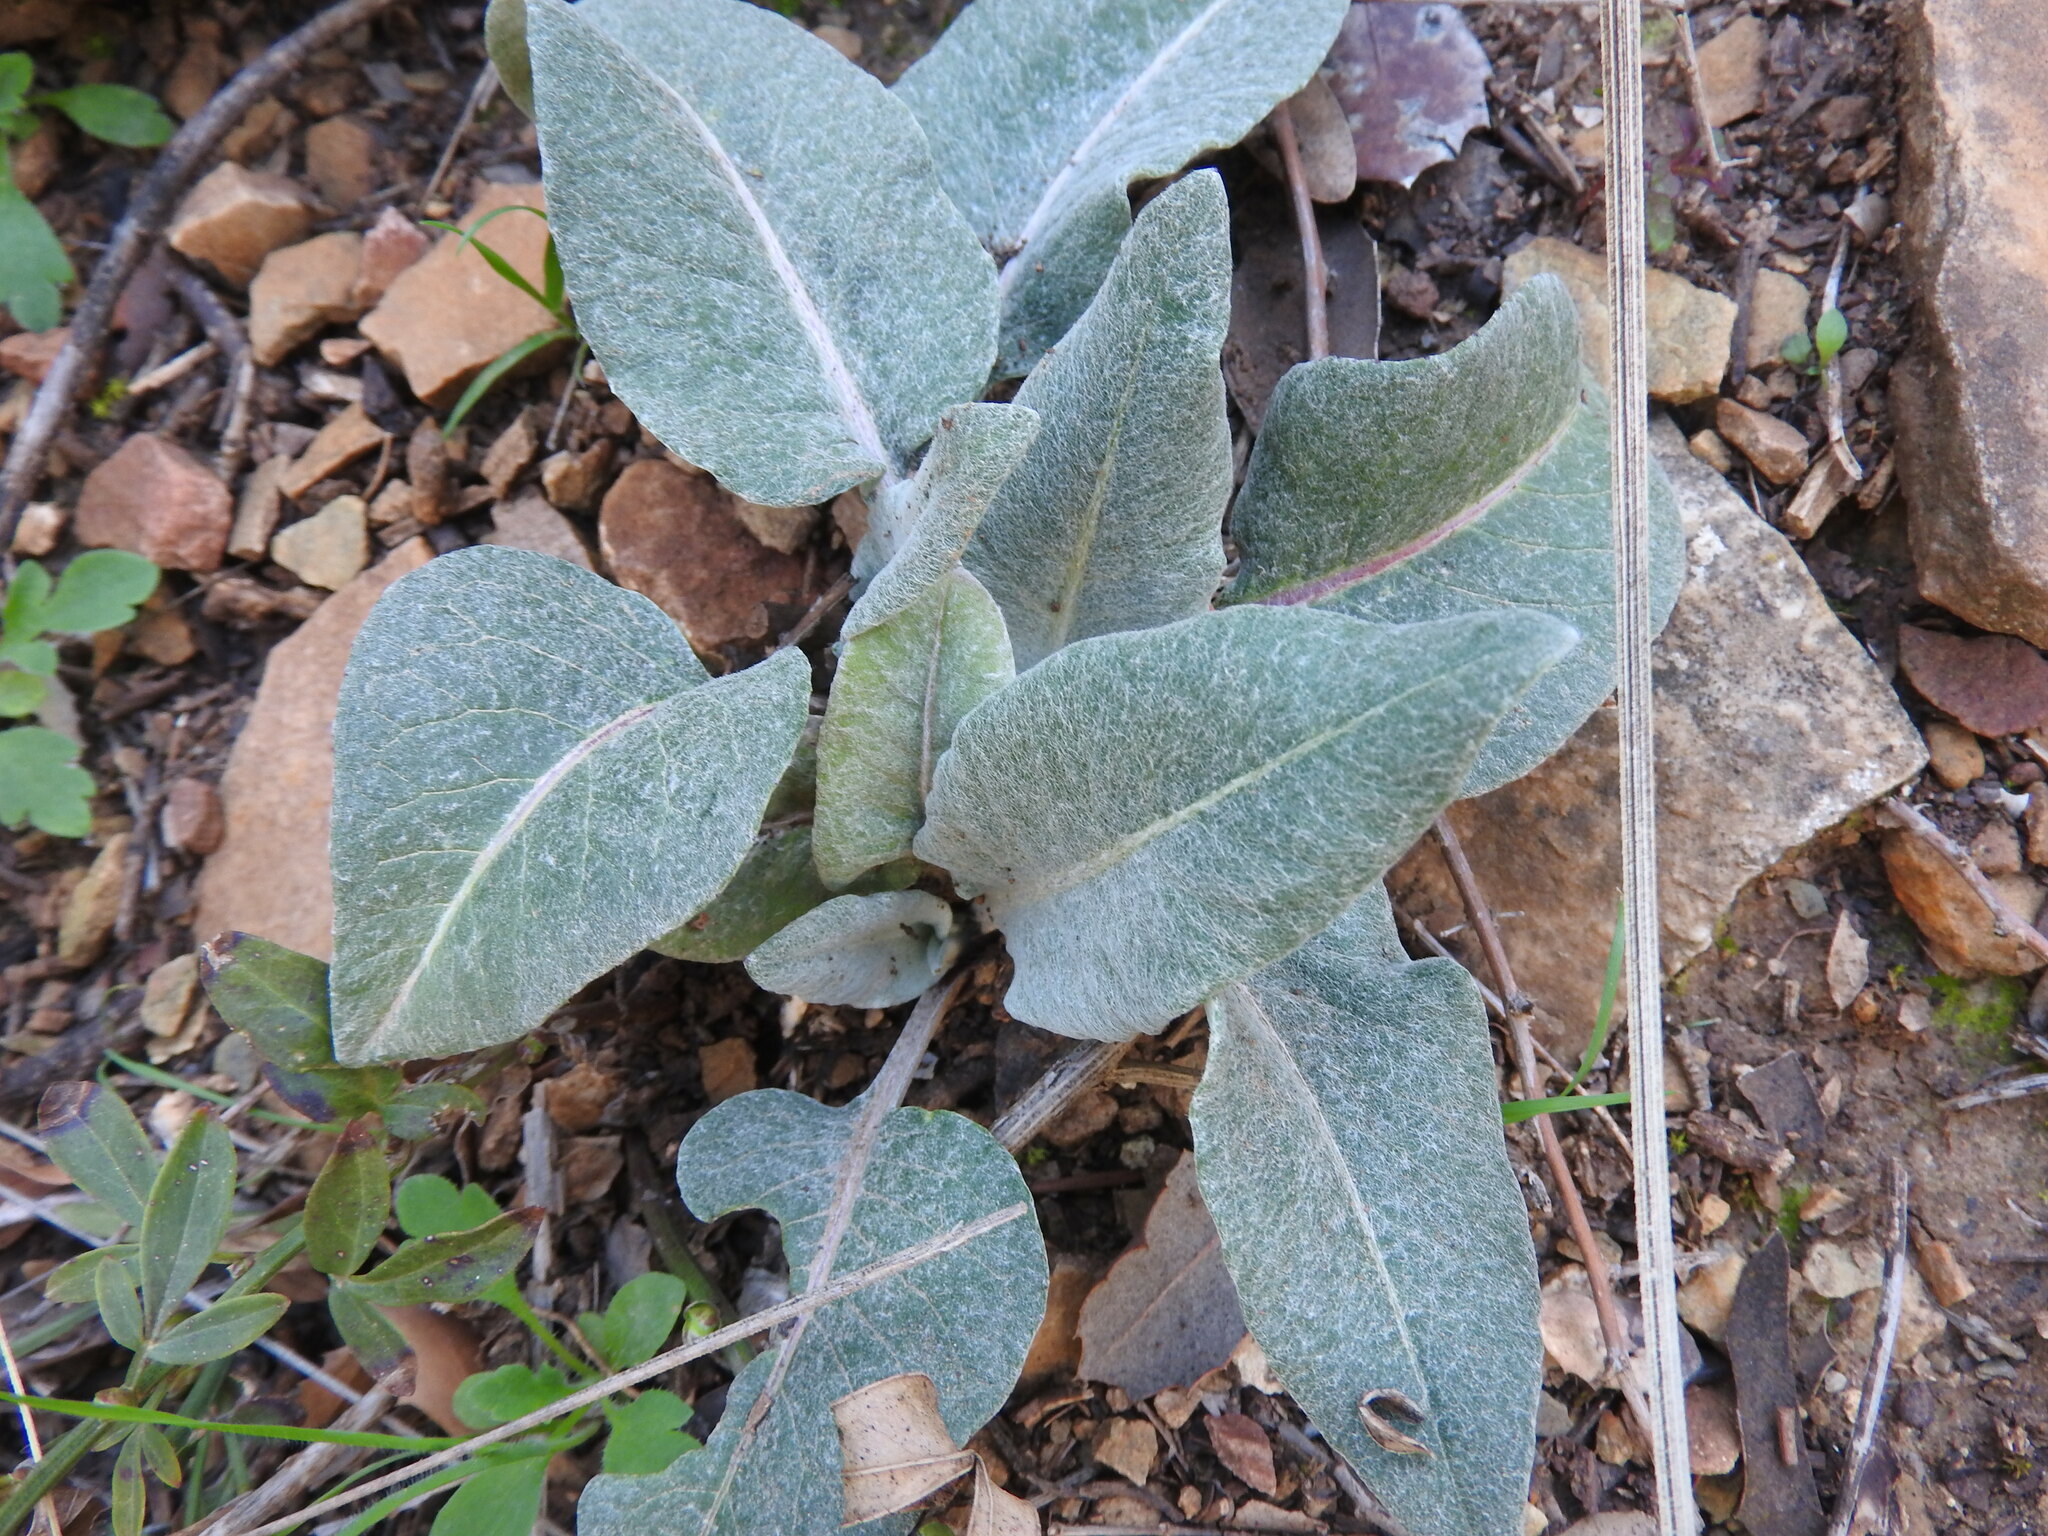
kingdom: Plantae
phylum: Tracheophyta
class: Magnoliopsida
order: Asterales
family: Asteraceae
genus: Leuzea
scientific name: Leuzea conifera
